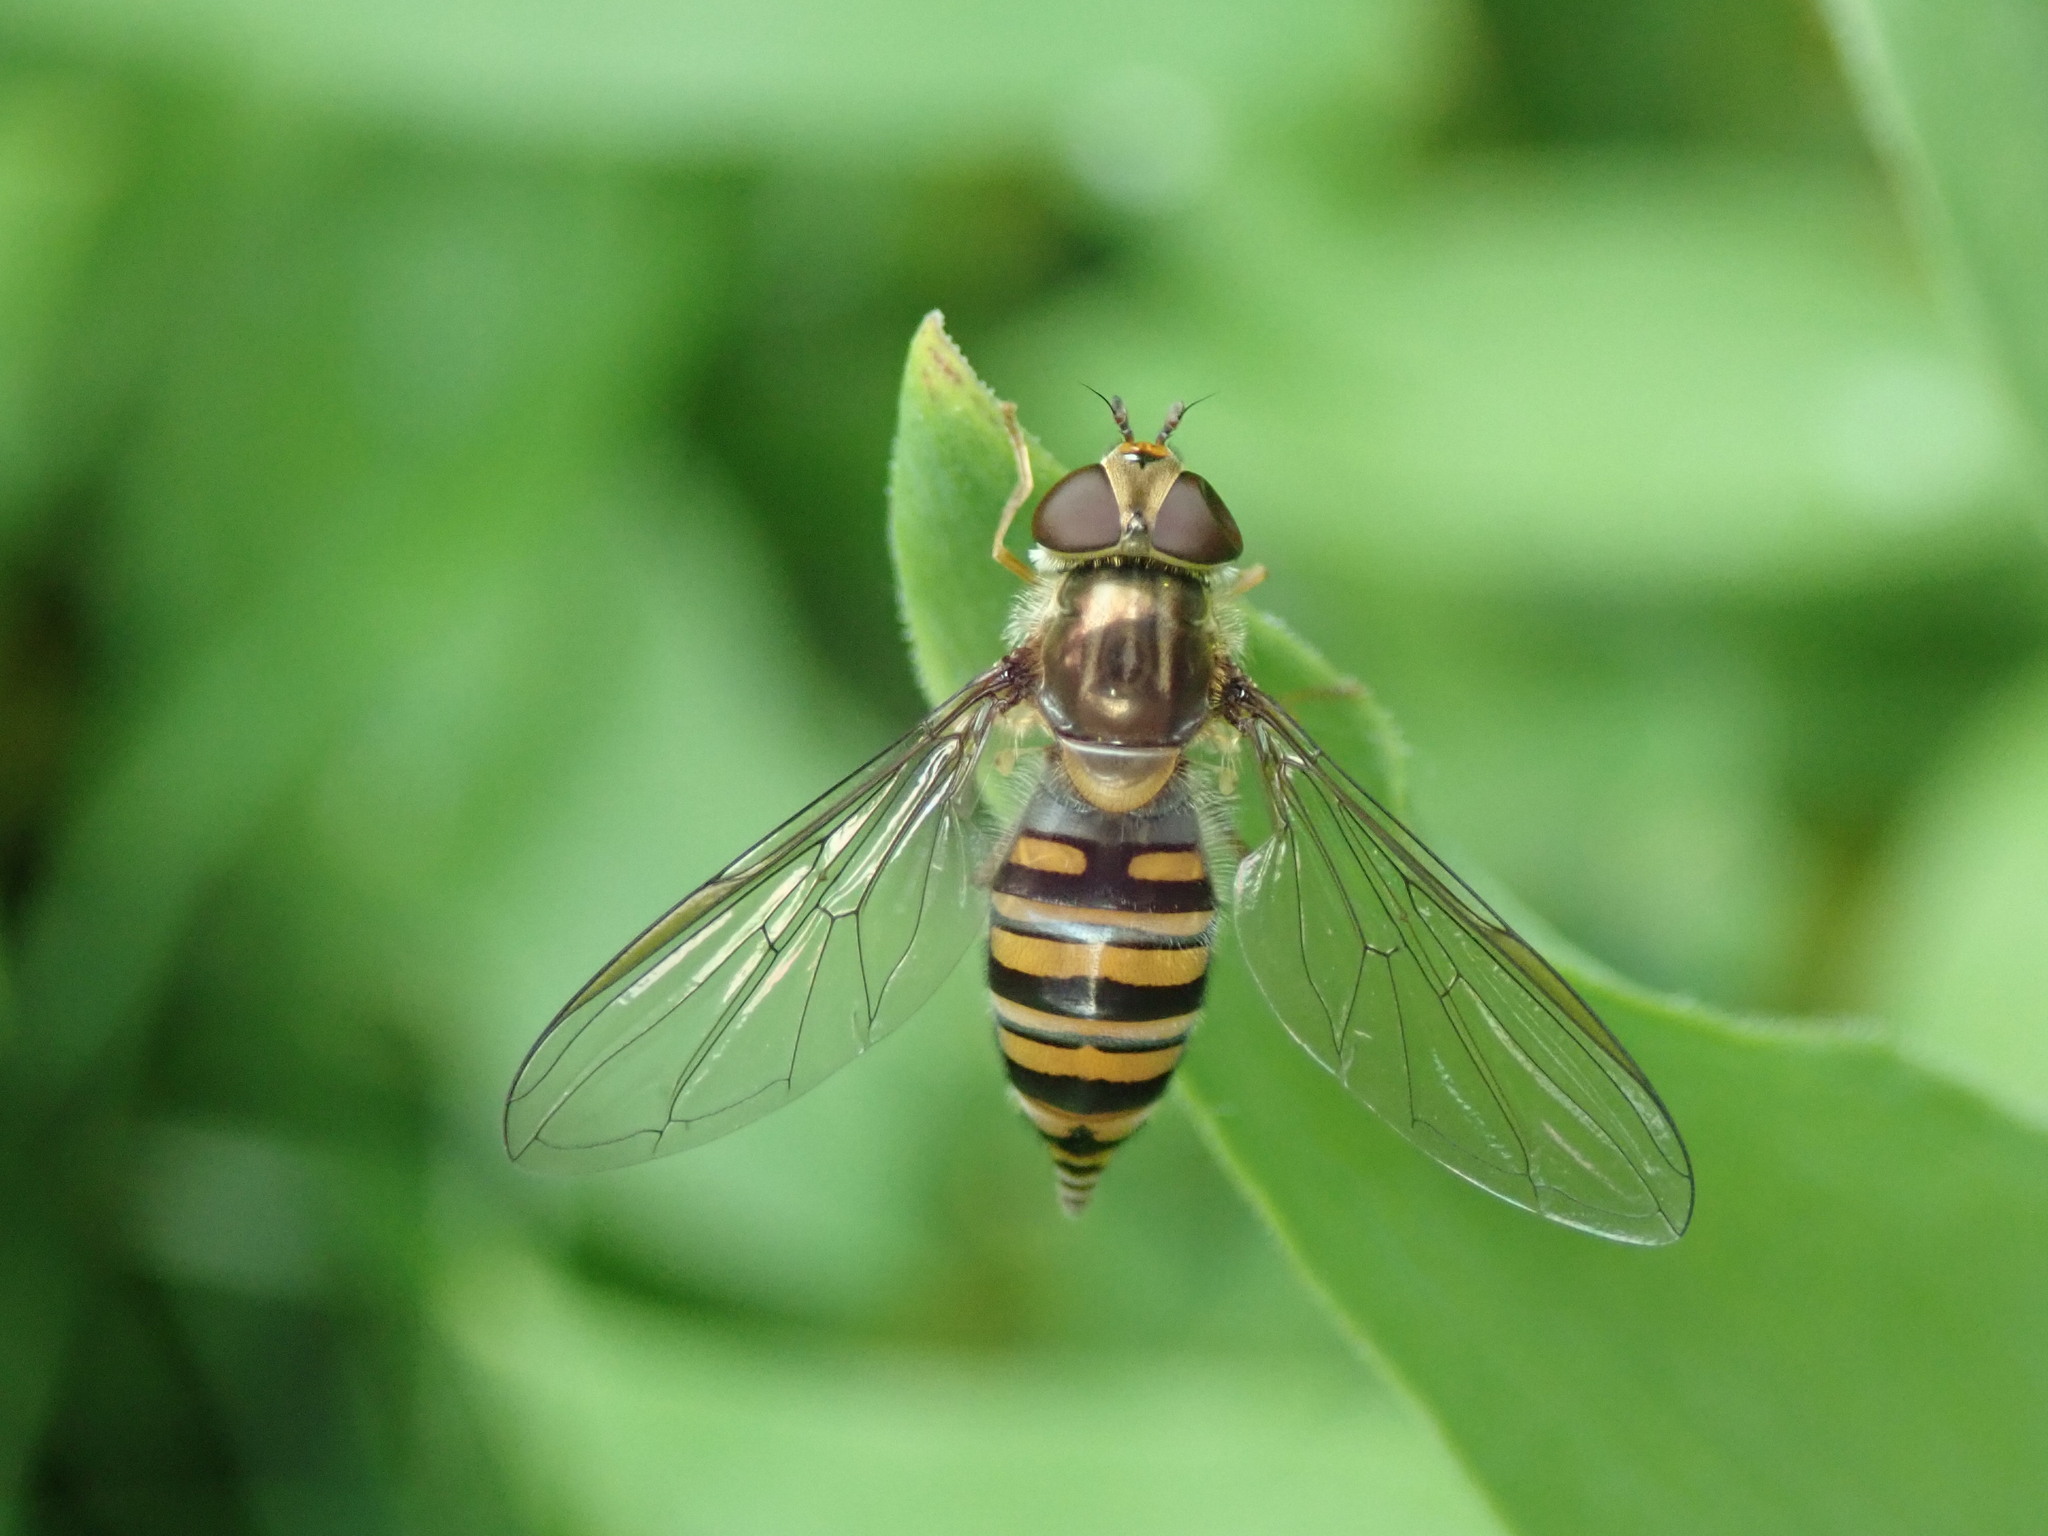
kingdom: Animalia
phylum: Arthropoda
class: Insecta
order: Diptera
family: Syrphidae
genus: Episyrphus
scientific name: Episyrphus balteatus
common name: Marmalade hoverfly
